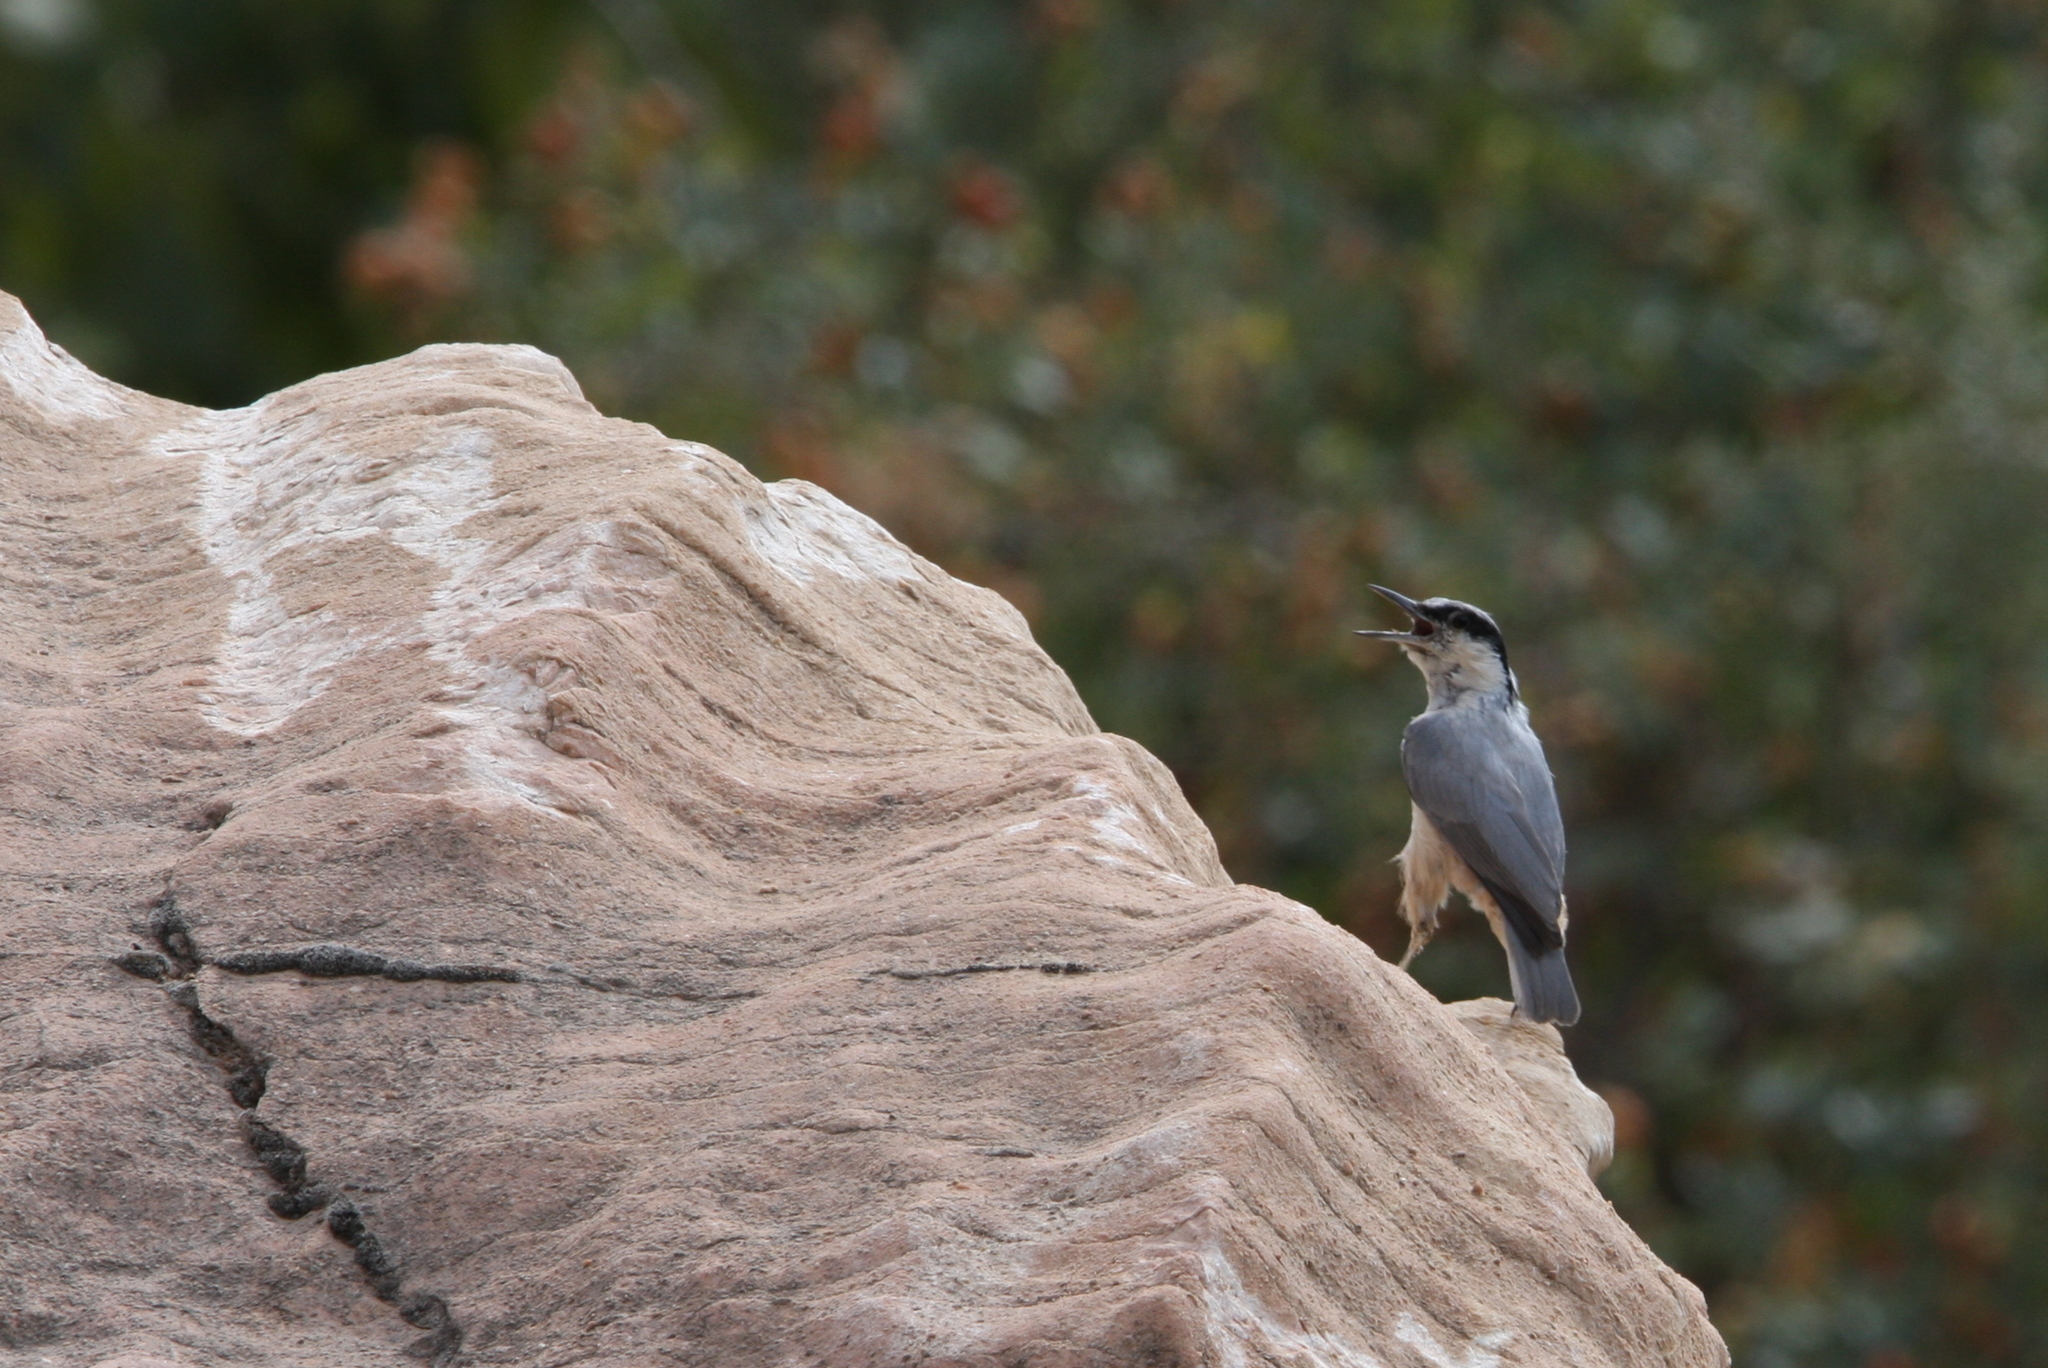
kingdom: Animalia
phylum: Chordata
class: Aves
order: Passeriformes
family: Sittidae
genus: Sitta
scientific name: Sitta tephronota
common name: Eastern rock nuthatch
